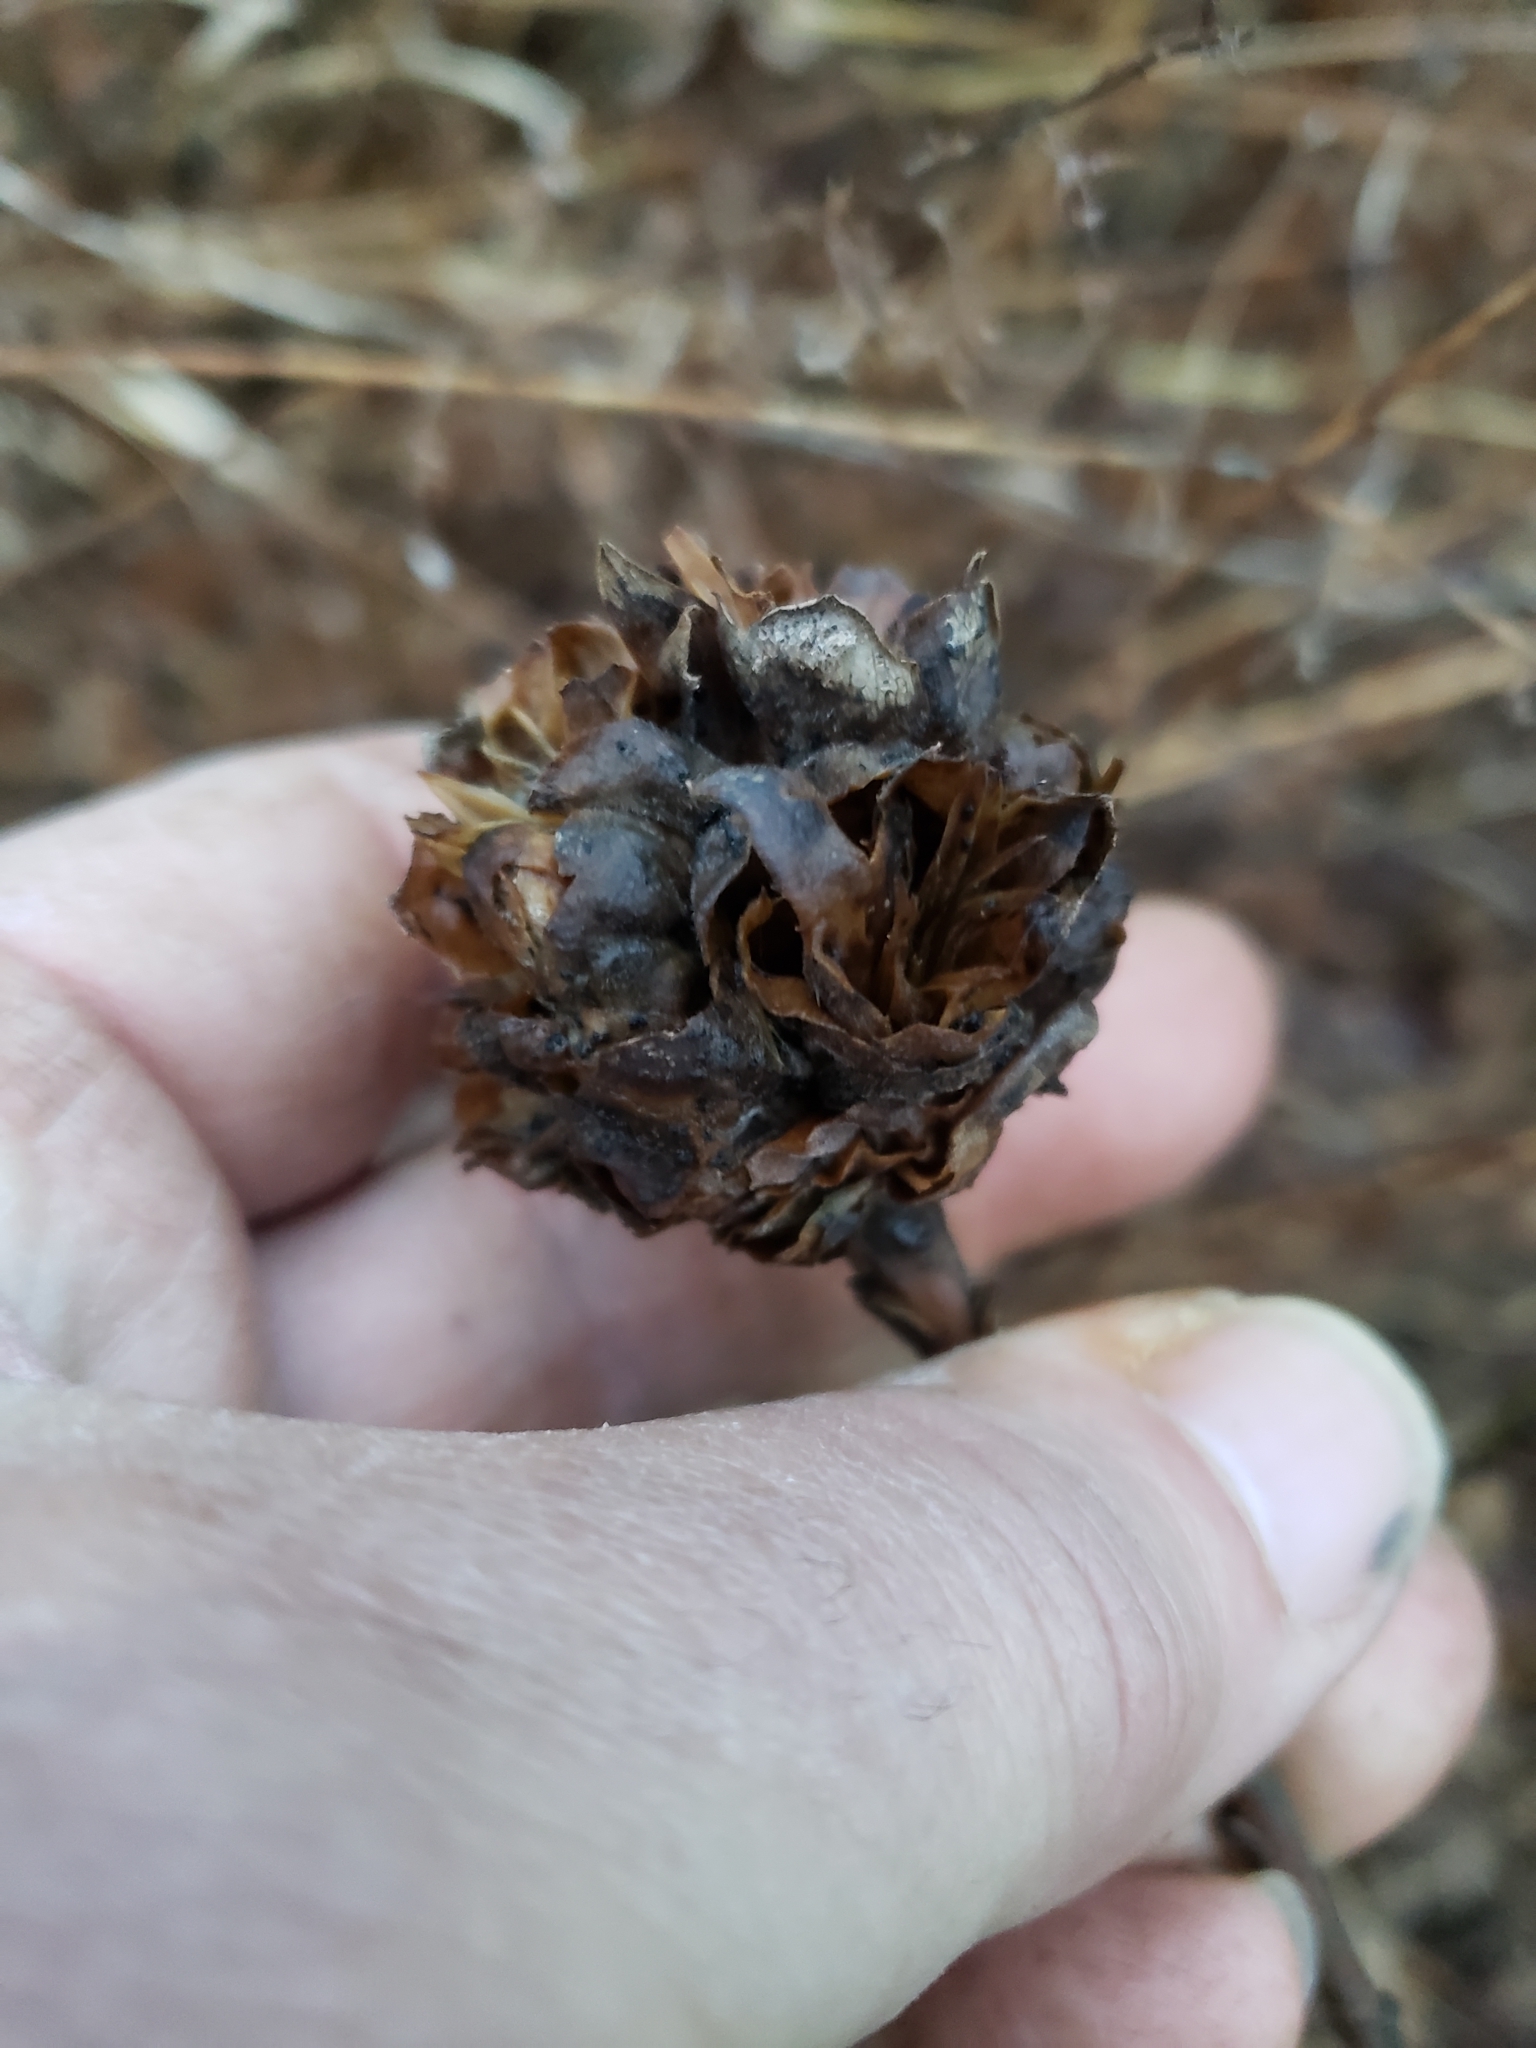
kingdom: Animalia
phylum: Arthropoda
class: Insecta
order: Diptera
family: Cecidomyiidae
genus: Rhopalomyia
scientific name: Rhopalomyia solidaginis
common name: Goldenrod bunch gall midge
